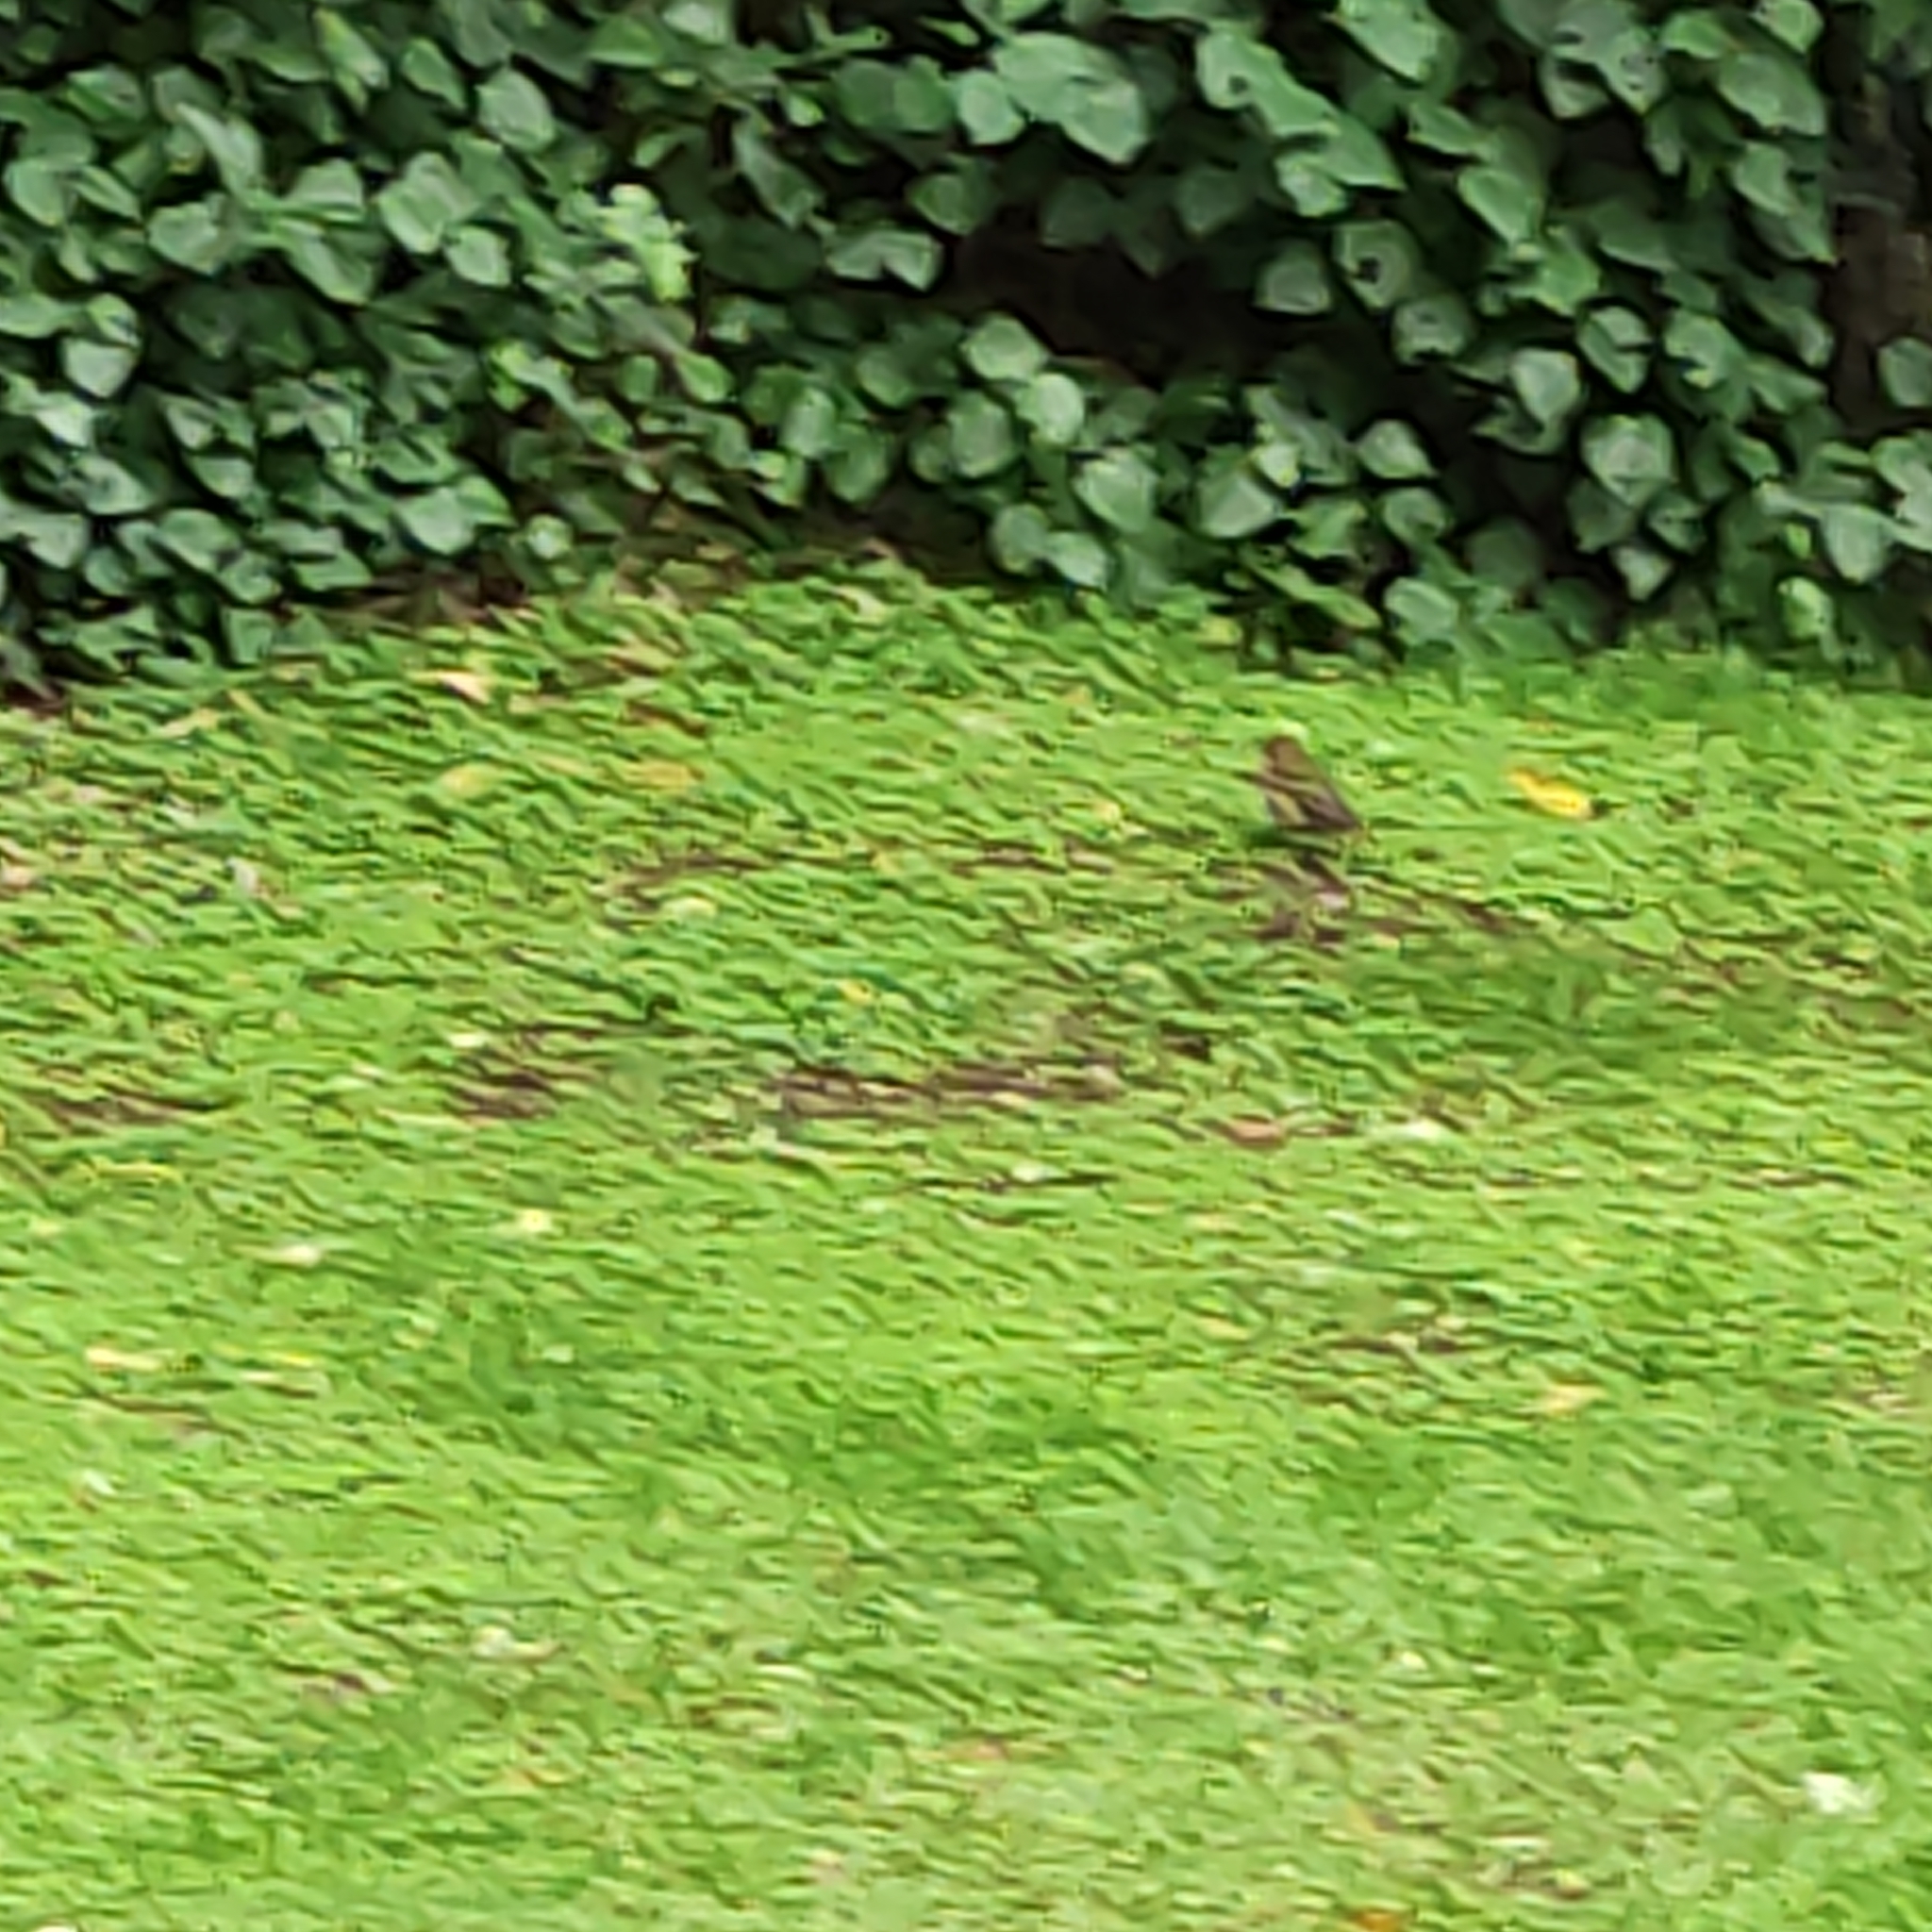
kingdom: Animalia
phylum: Chordata
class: Aves
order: Passeriformes
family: Turdidae
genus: Turdus
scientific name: Turdus philomelos
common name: Song thrush
